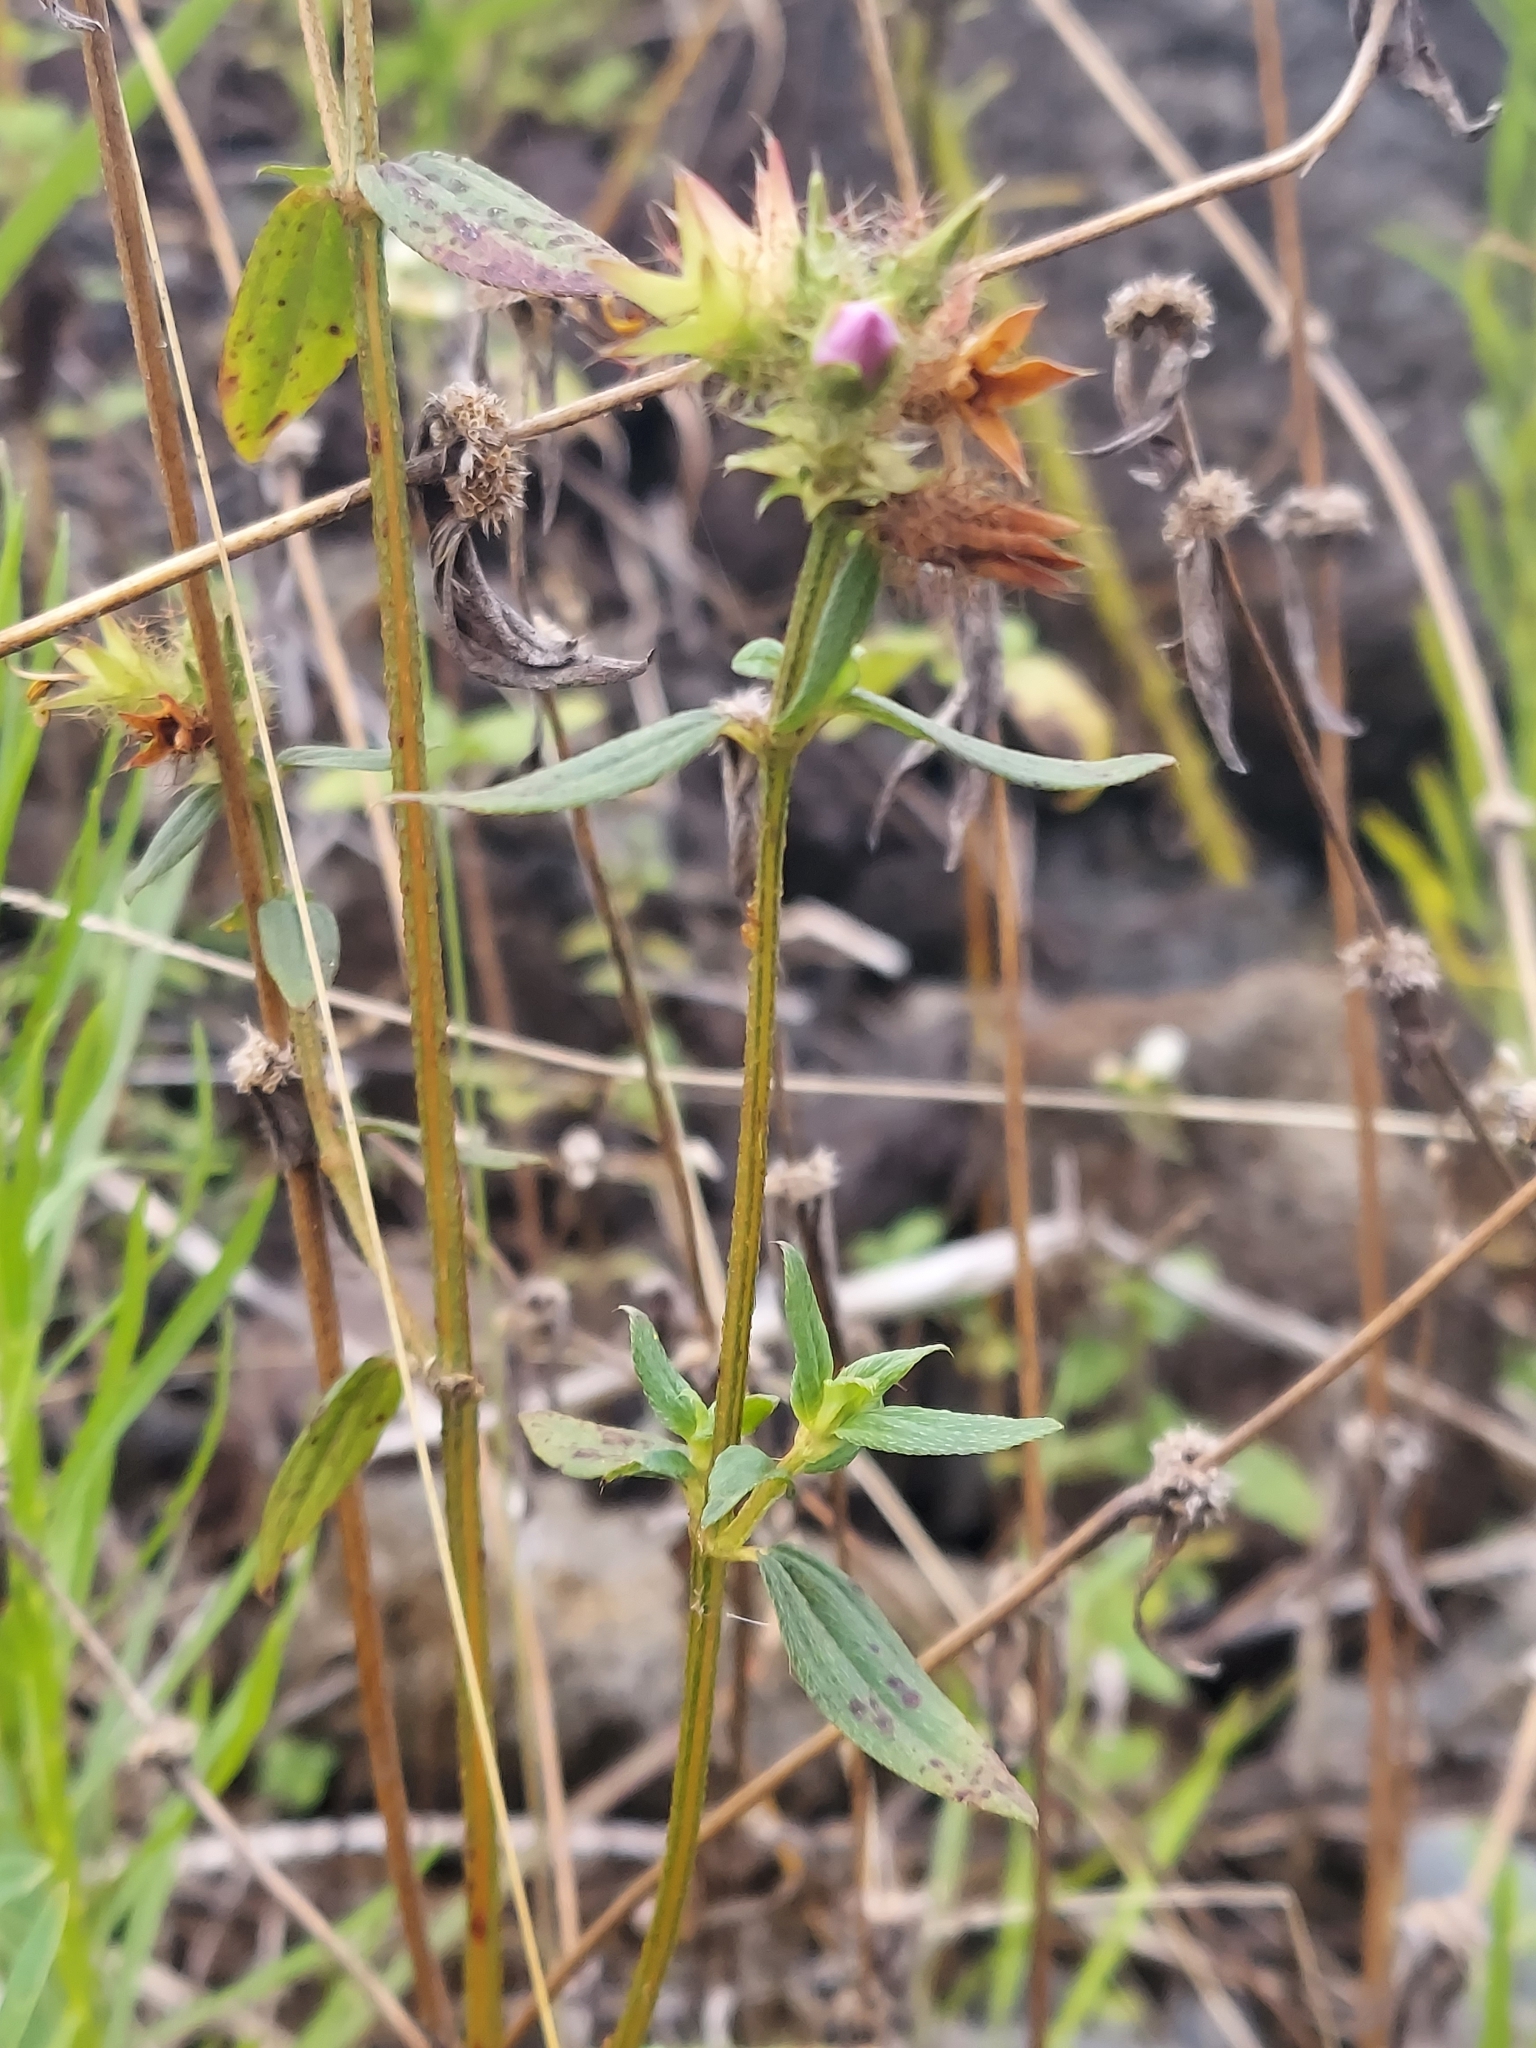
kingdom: Plantae
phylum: Tracheophyta
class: Magnoliopsida
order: Myrtales
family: Melastomataceae
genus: Pterolepis
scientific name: Pterolepis glomerata
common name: False meadowbeauty
